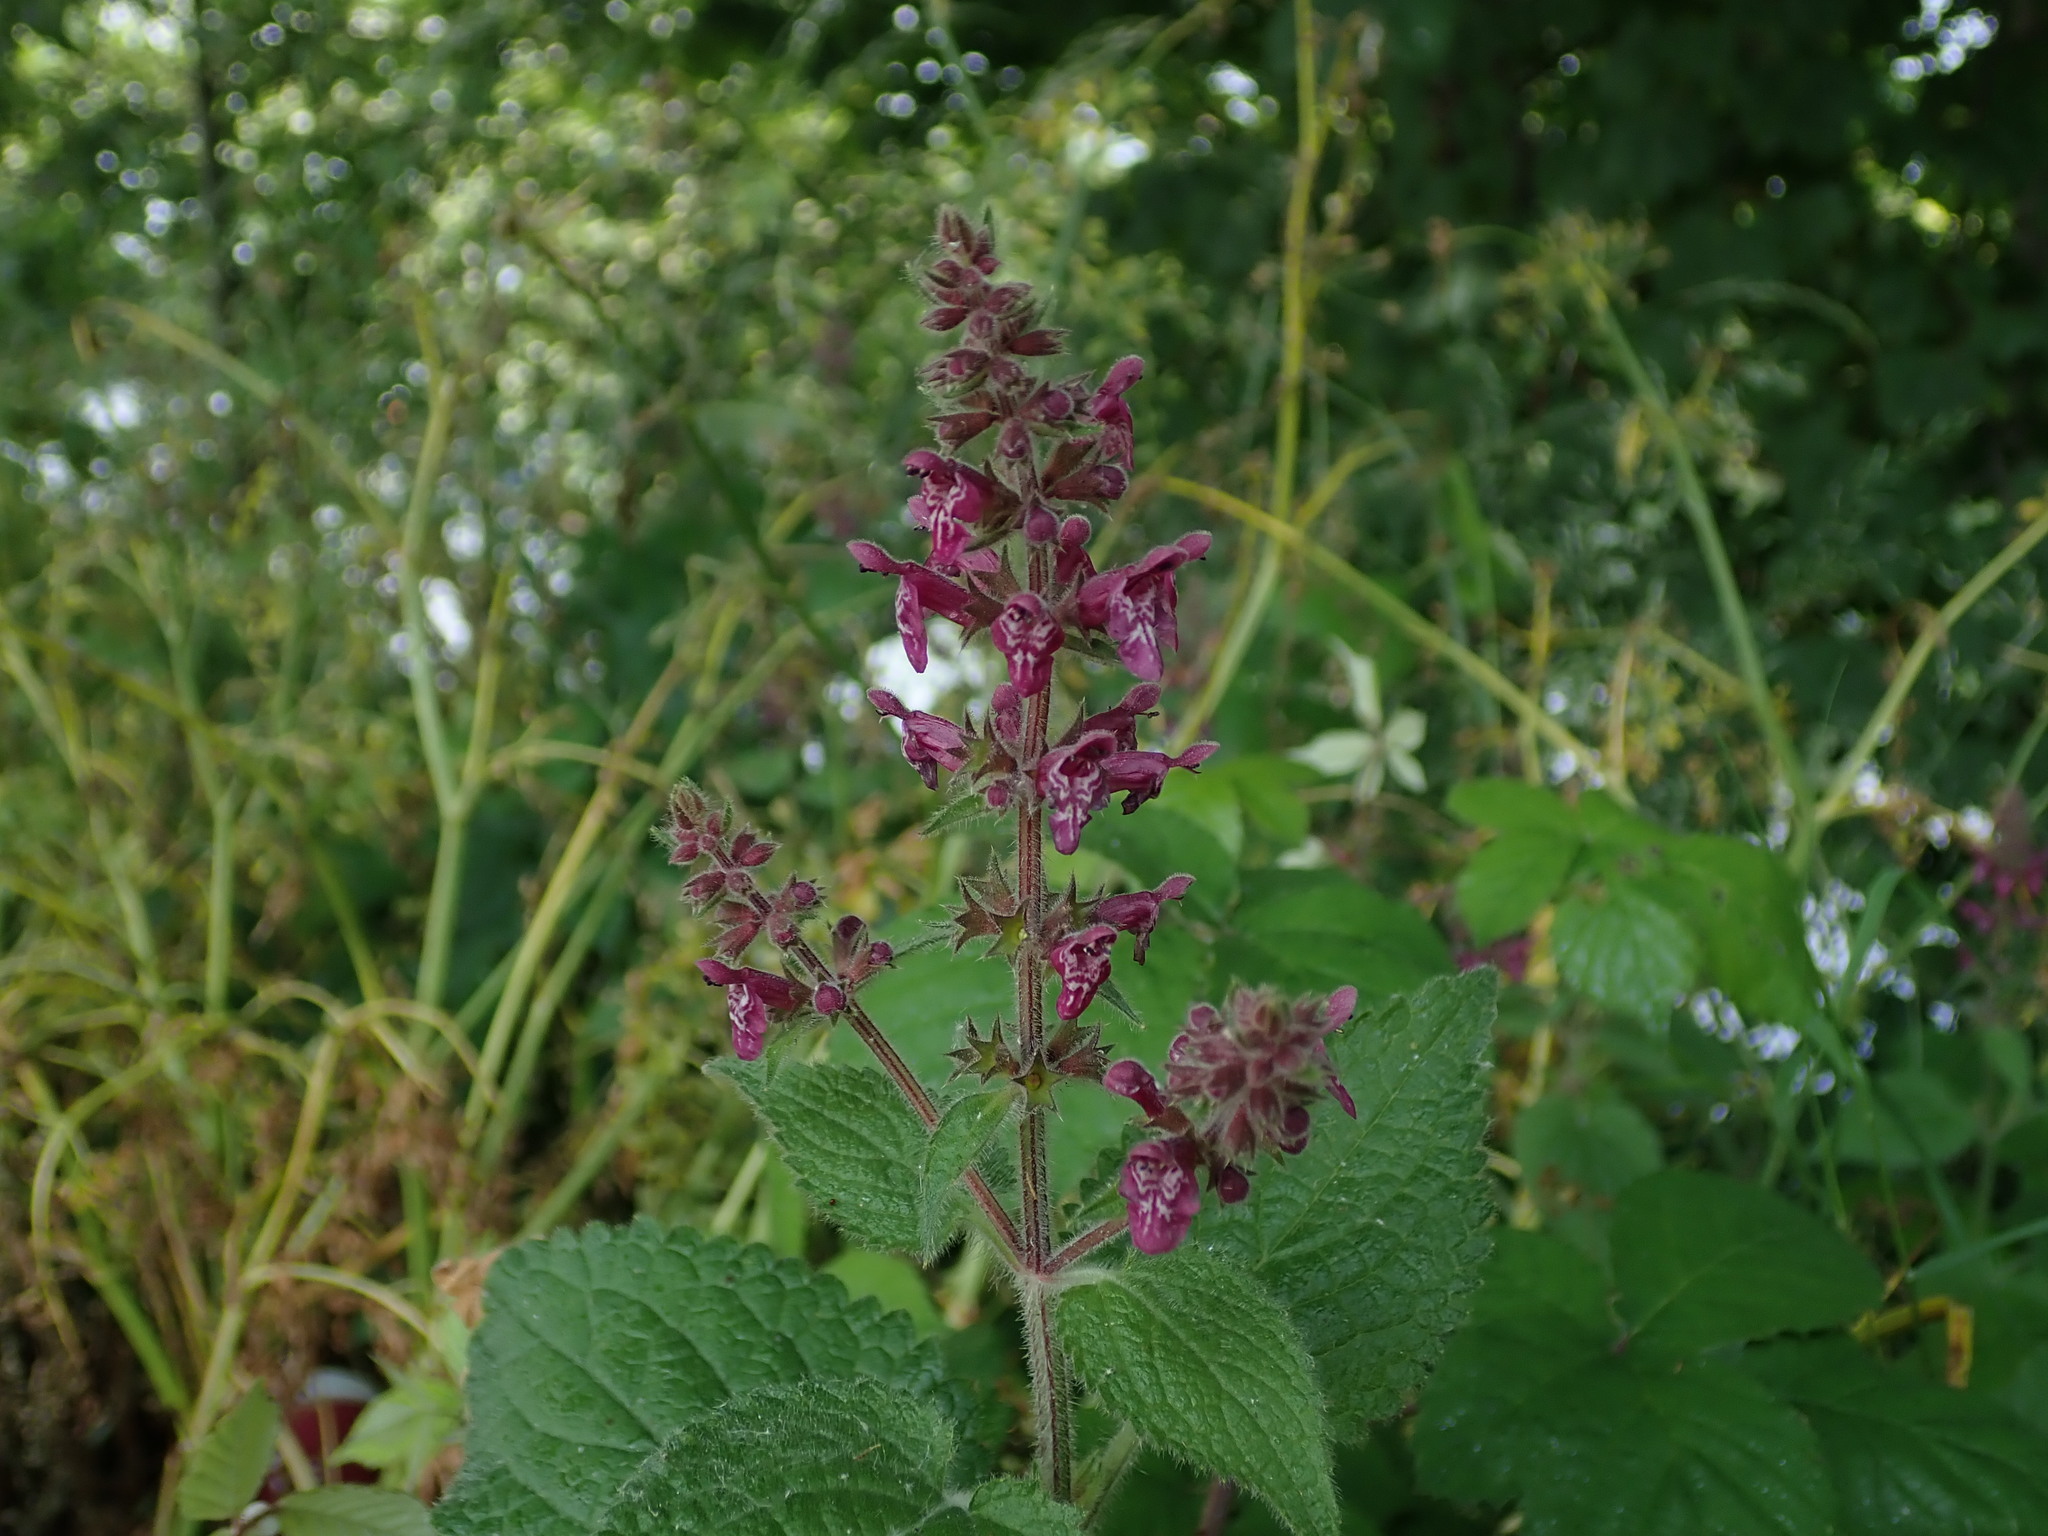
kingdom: Plantae
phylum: Tracheophyta
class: Magnoliopsida
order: Lamiales
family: Lamiaceae
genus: Stachys
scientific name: Stachys sylvatica
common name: Hedge woundwort
